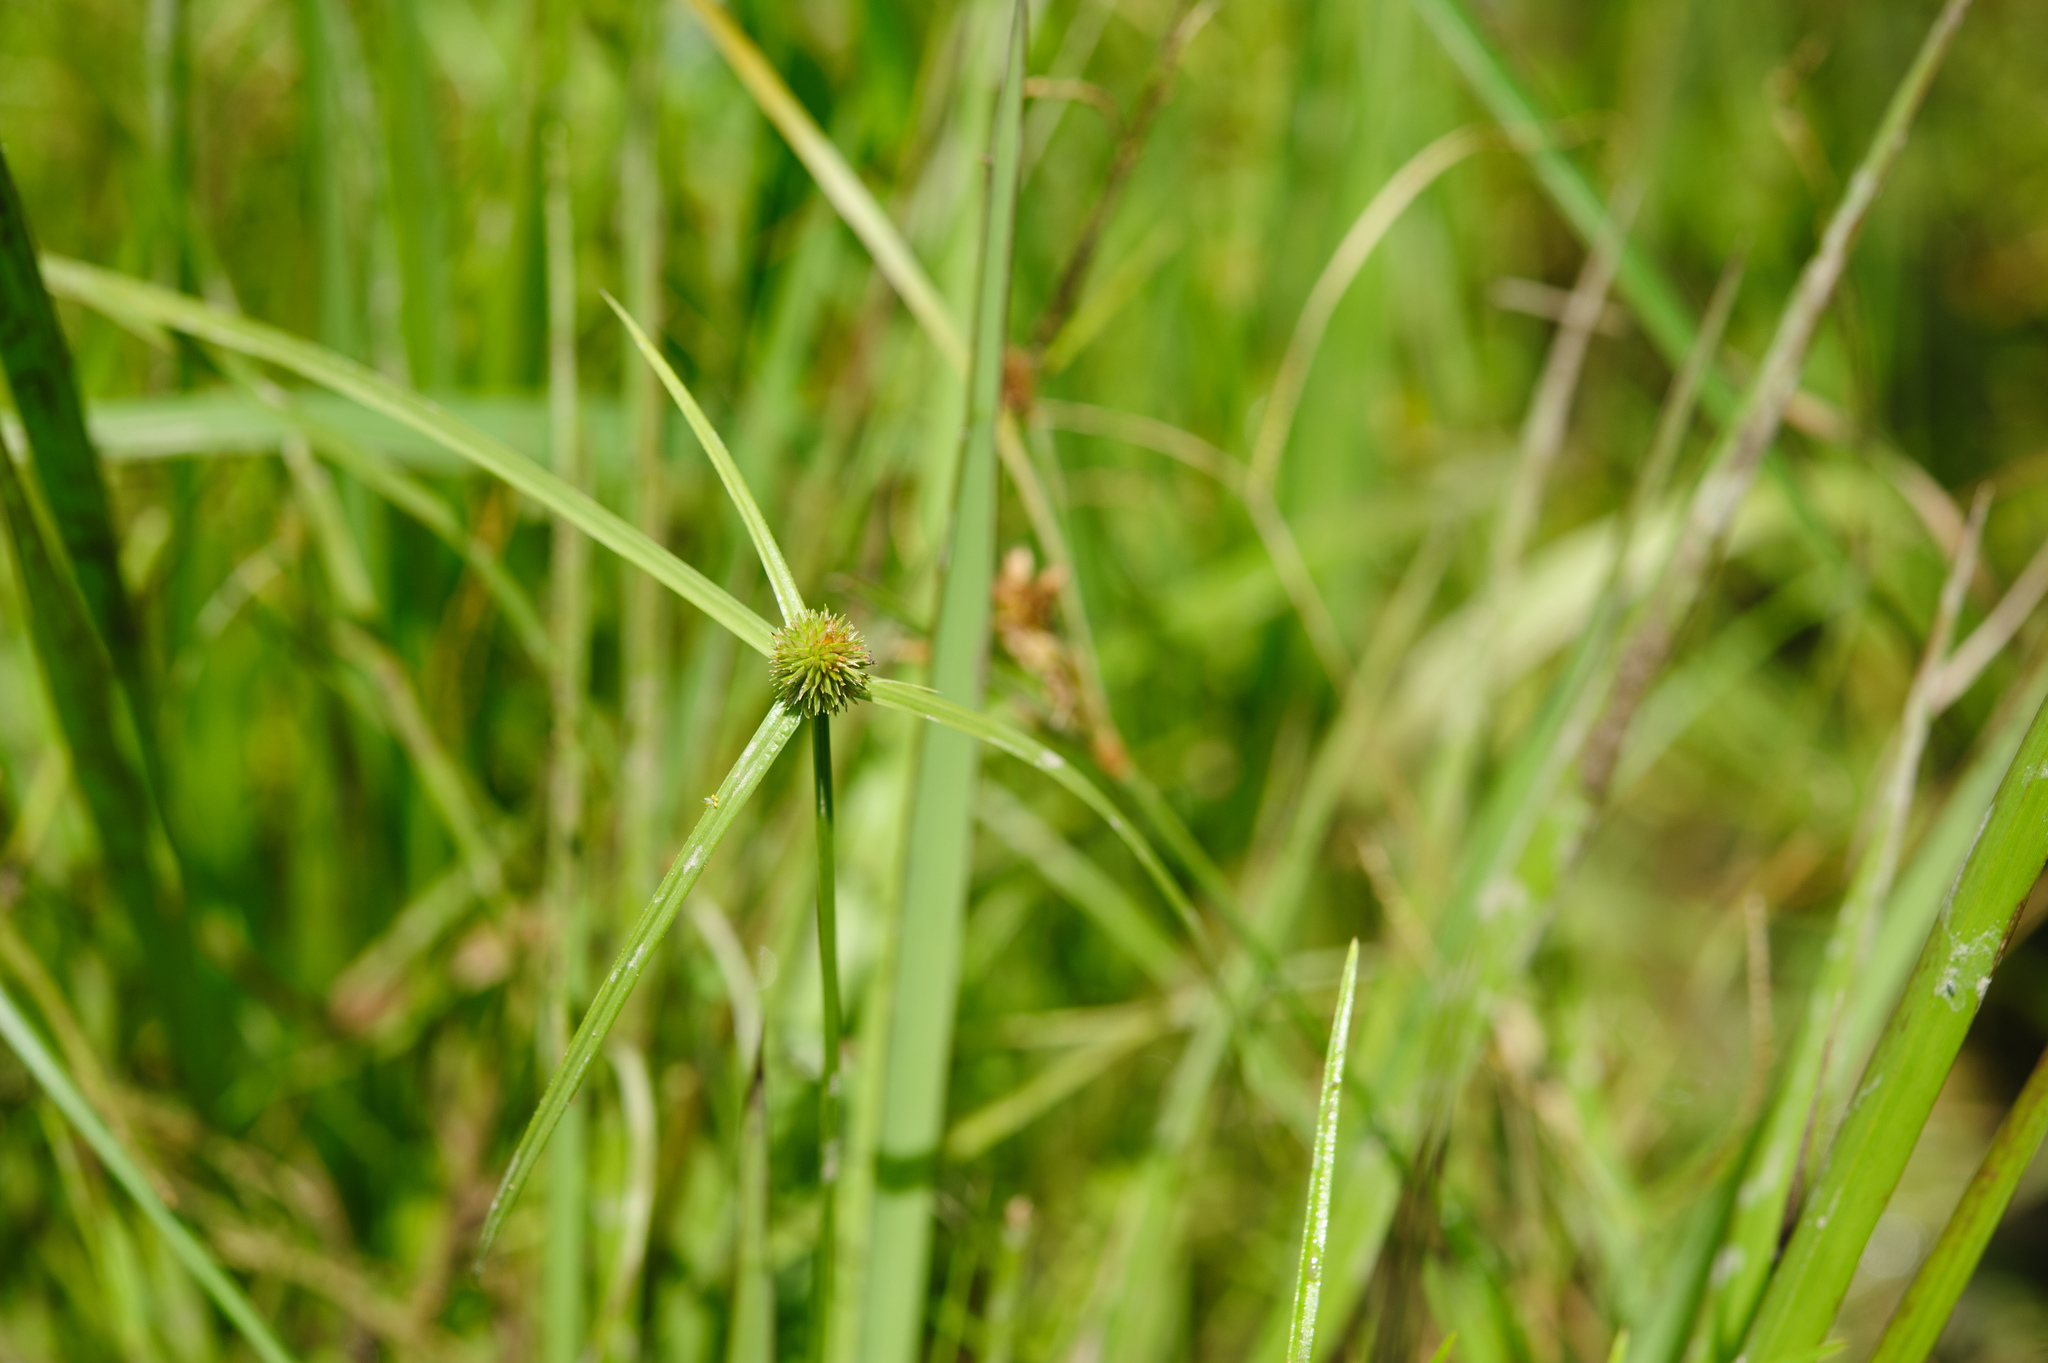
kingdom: Plantae
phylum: Tracheophyta
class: Liliopsida
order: Poales
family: Cyperaceae
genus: Cyperus
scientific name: Cyperus brevifolius
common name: Globe kyllinga
